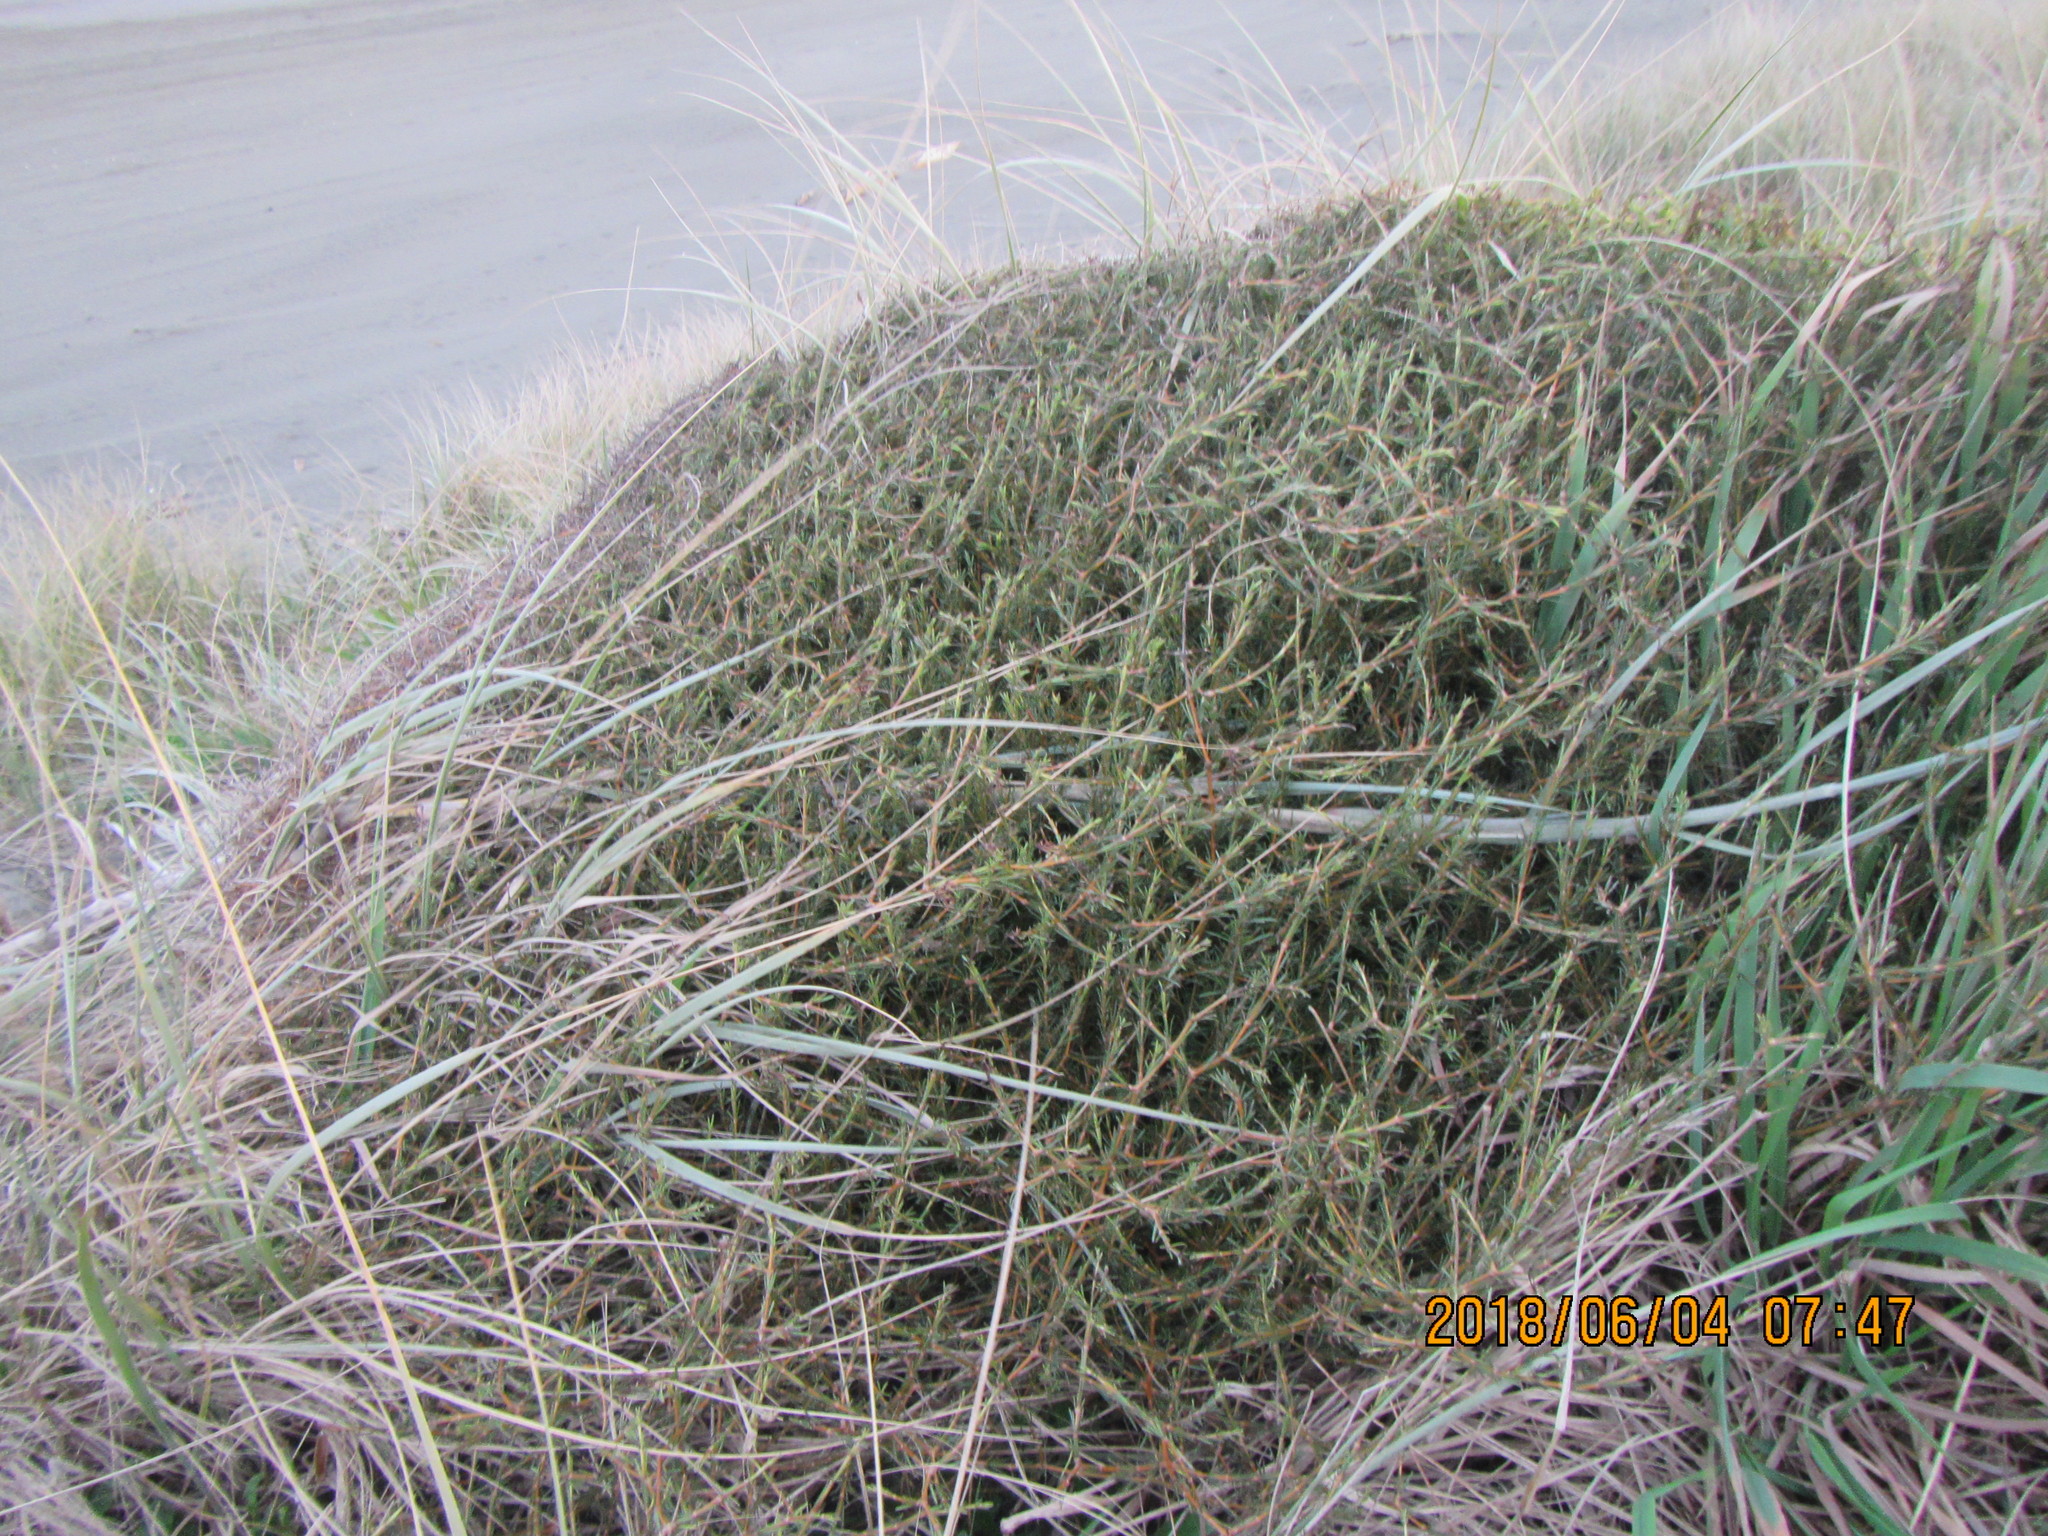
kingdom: Plantae
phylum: Tracheophyta
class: Magnoliopsida
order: Gentianales
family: Rubiaceae
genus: Coprosma
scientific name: Coprosma acerosa
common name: Sand coprosma
